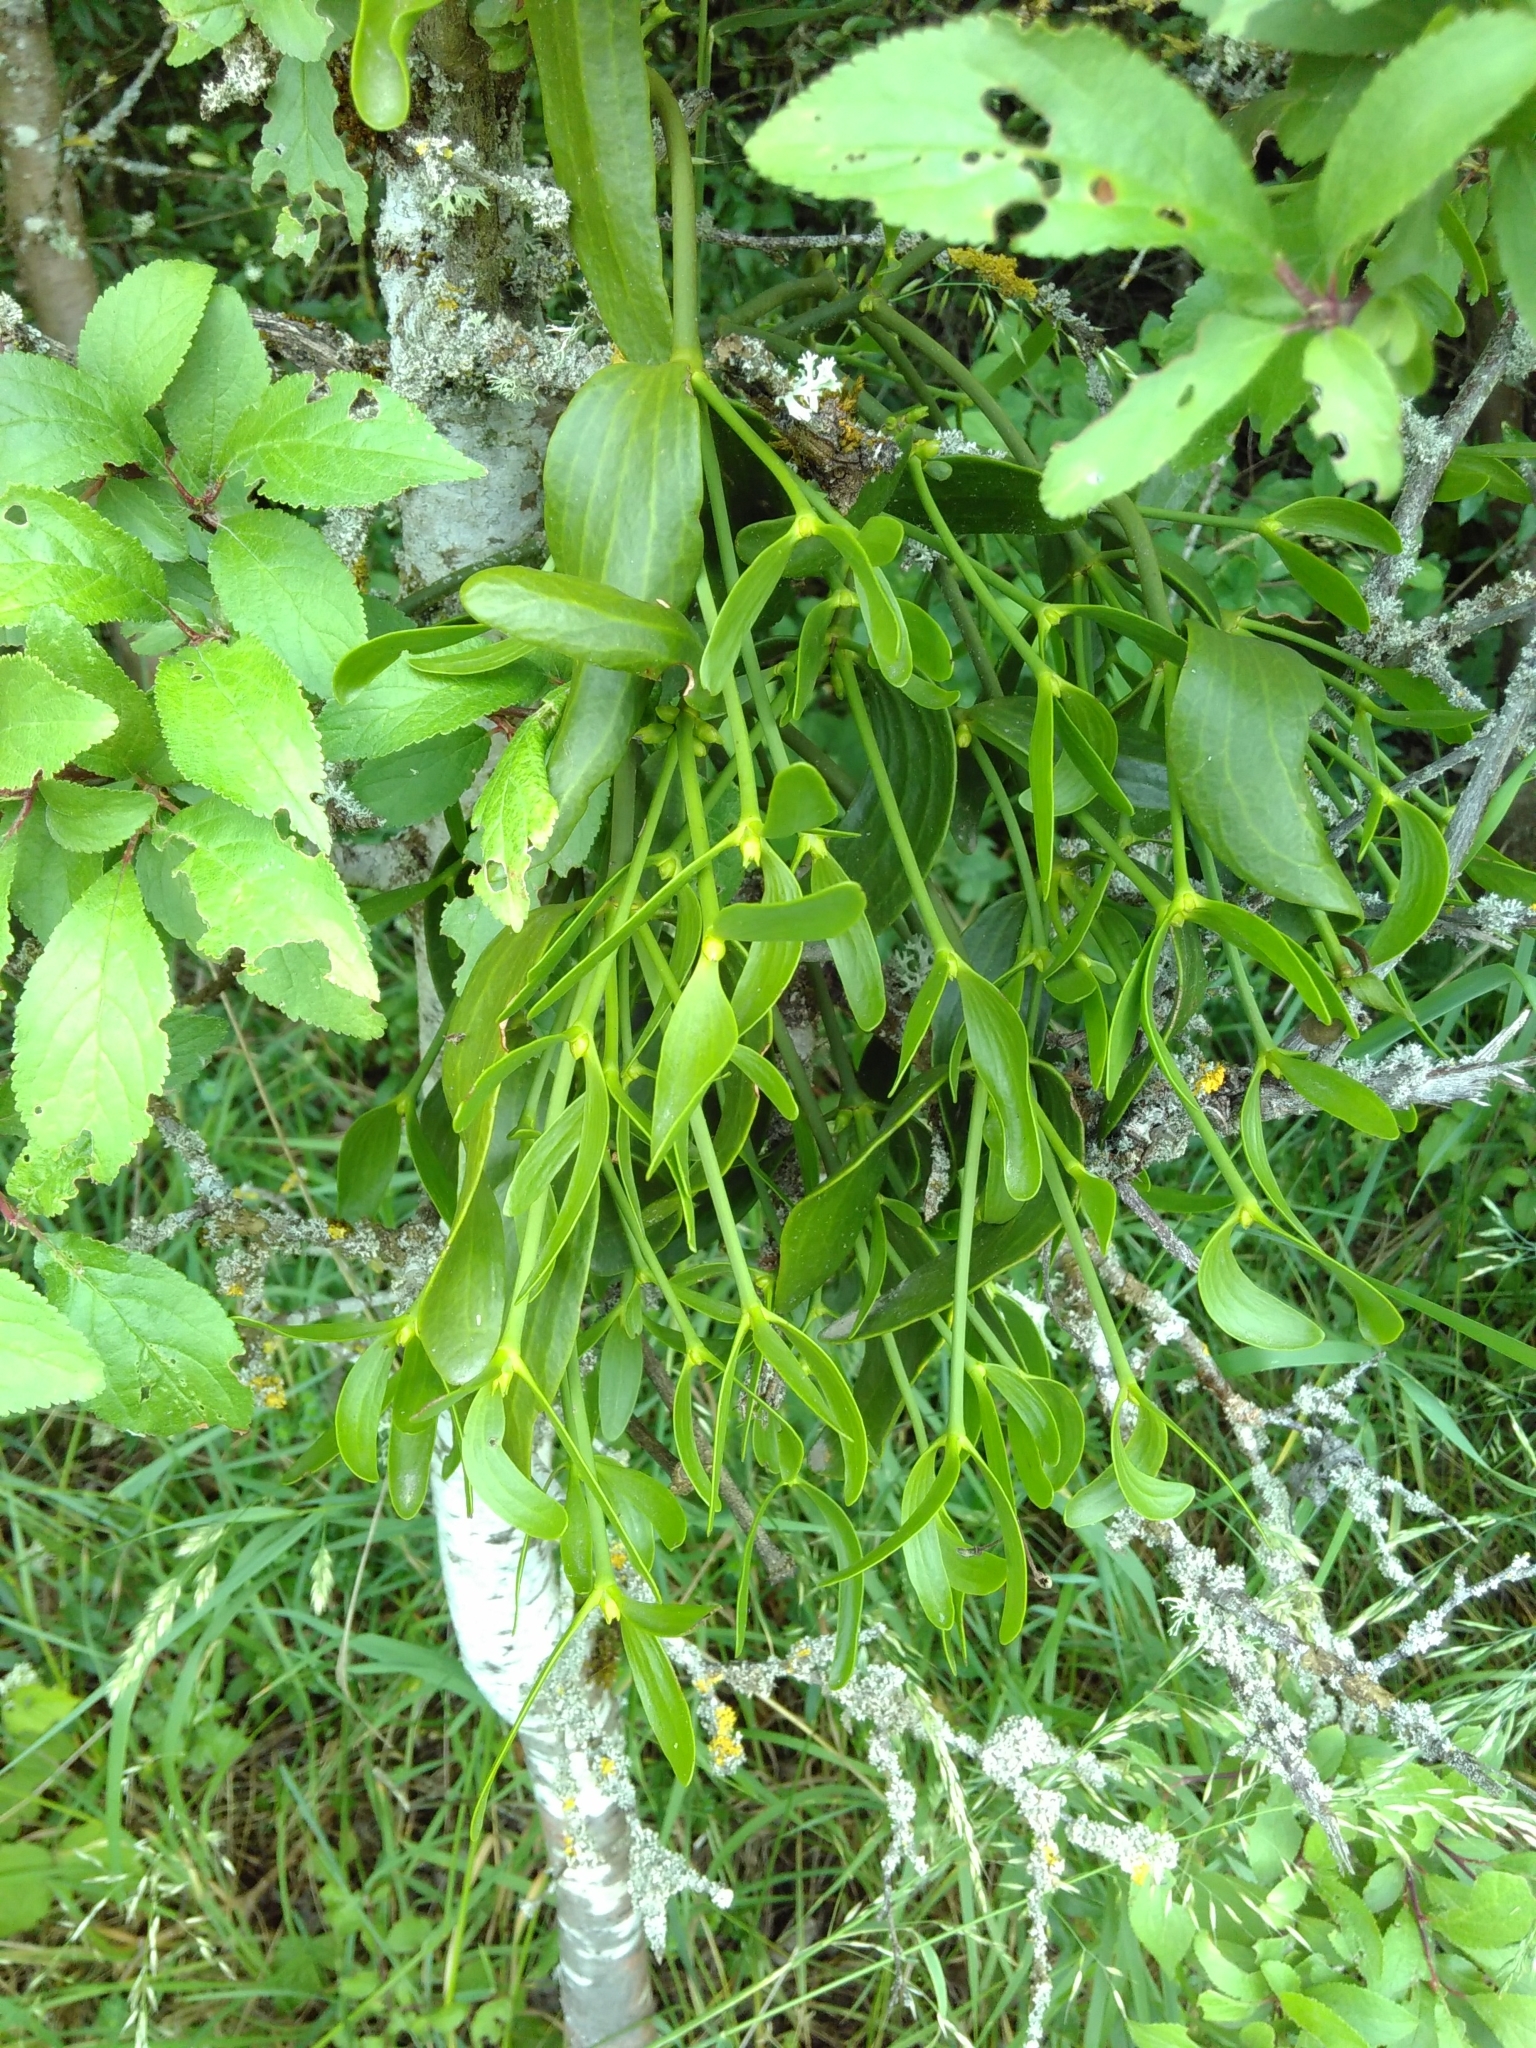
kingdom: Plantae
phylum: Tracheophyta
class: Magnoliopsida
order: Santalales
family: Viscaceae
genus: Viscum
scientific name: Viscum album
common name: Mistletoe
